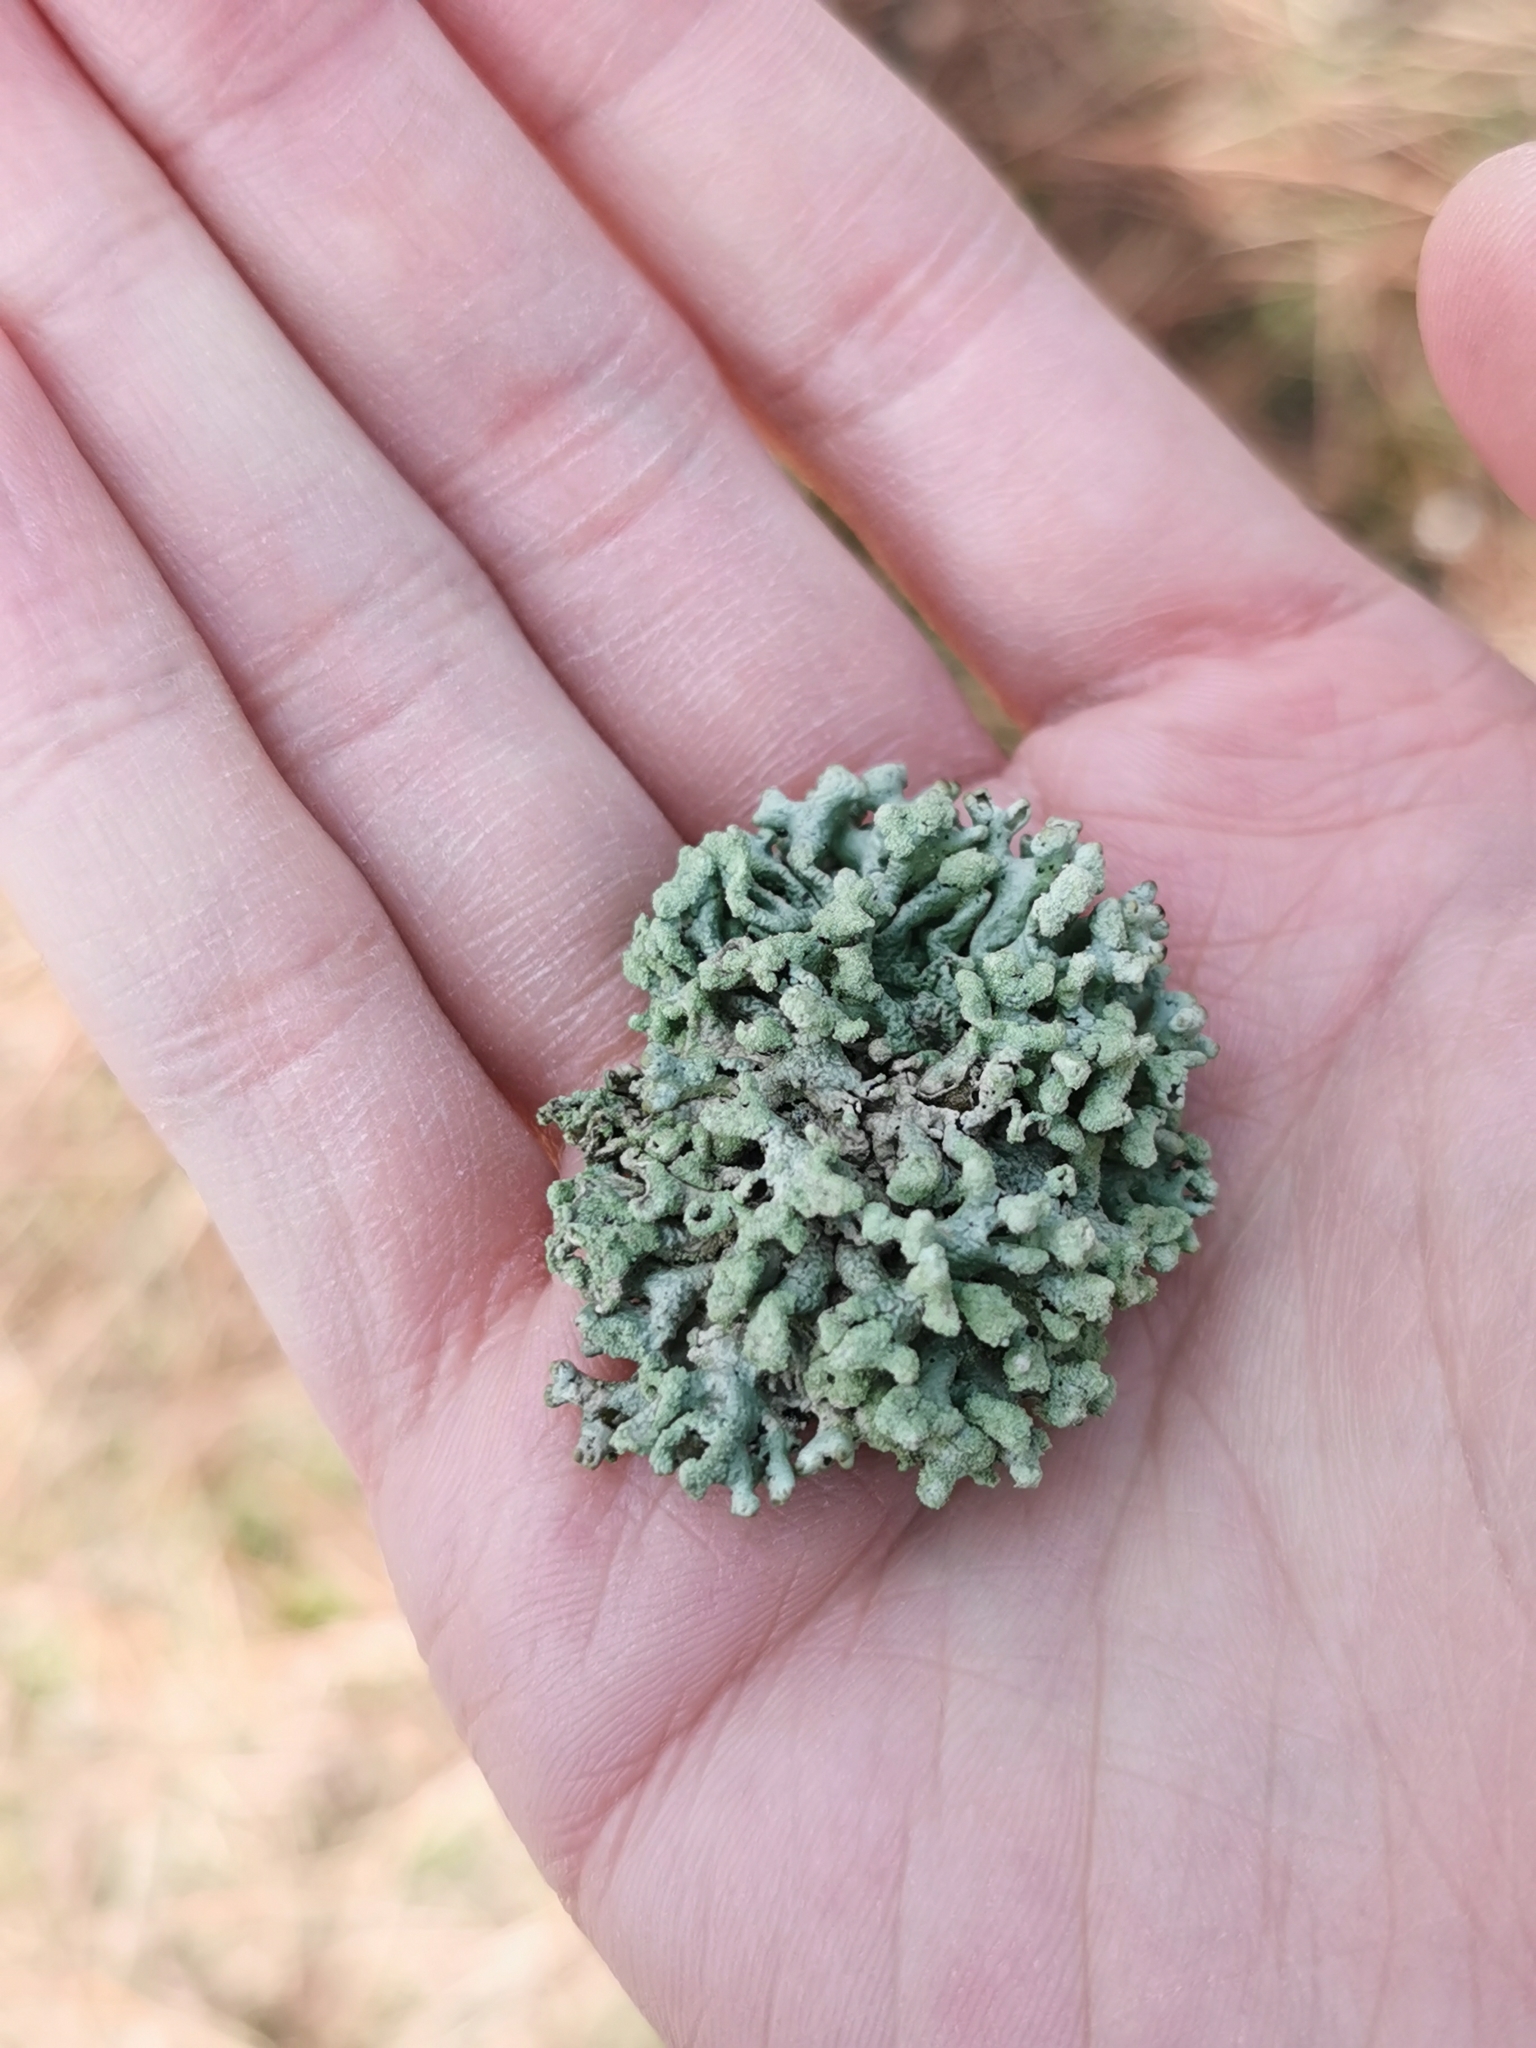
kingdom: Fungi
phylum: Ascomycota
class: Lecanoromycetes
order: Lecanorales
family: Parmeliaceae
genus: Hypogymnia
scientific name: Hypogymnia tubulosa
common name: Powder-headed tube lichen
